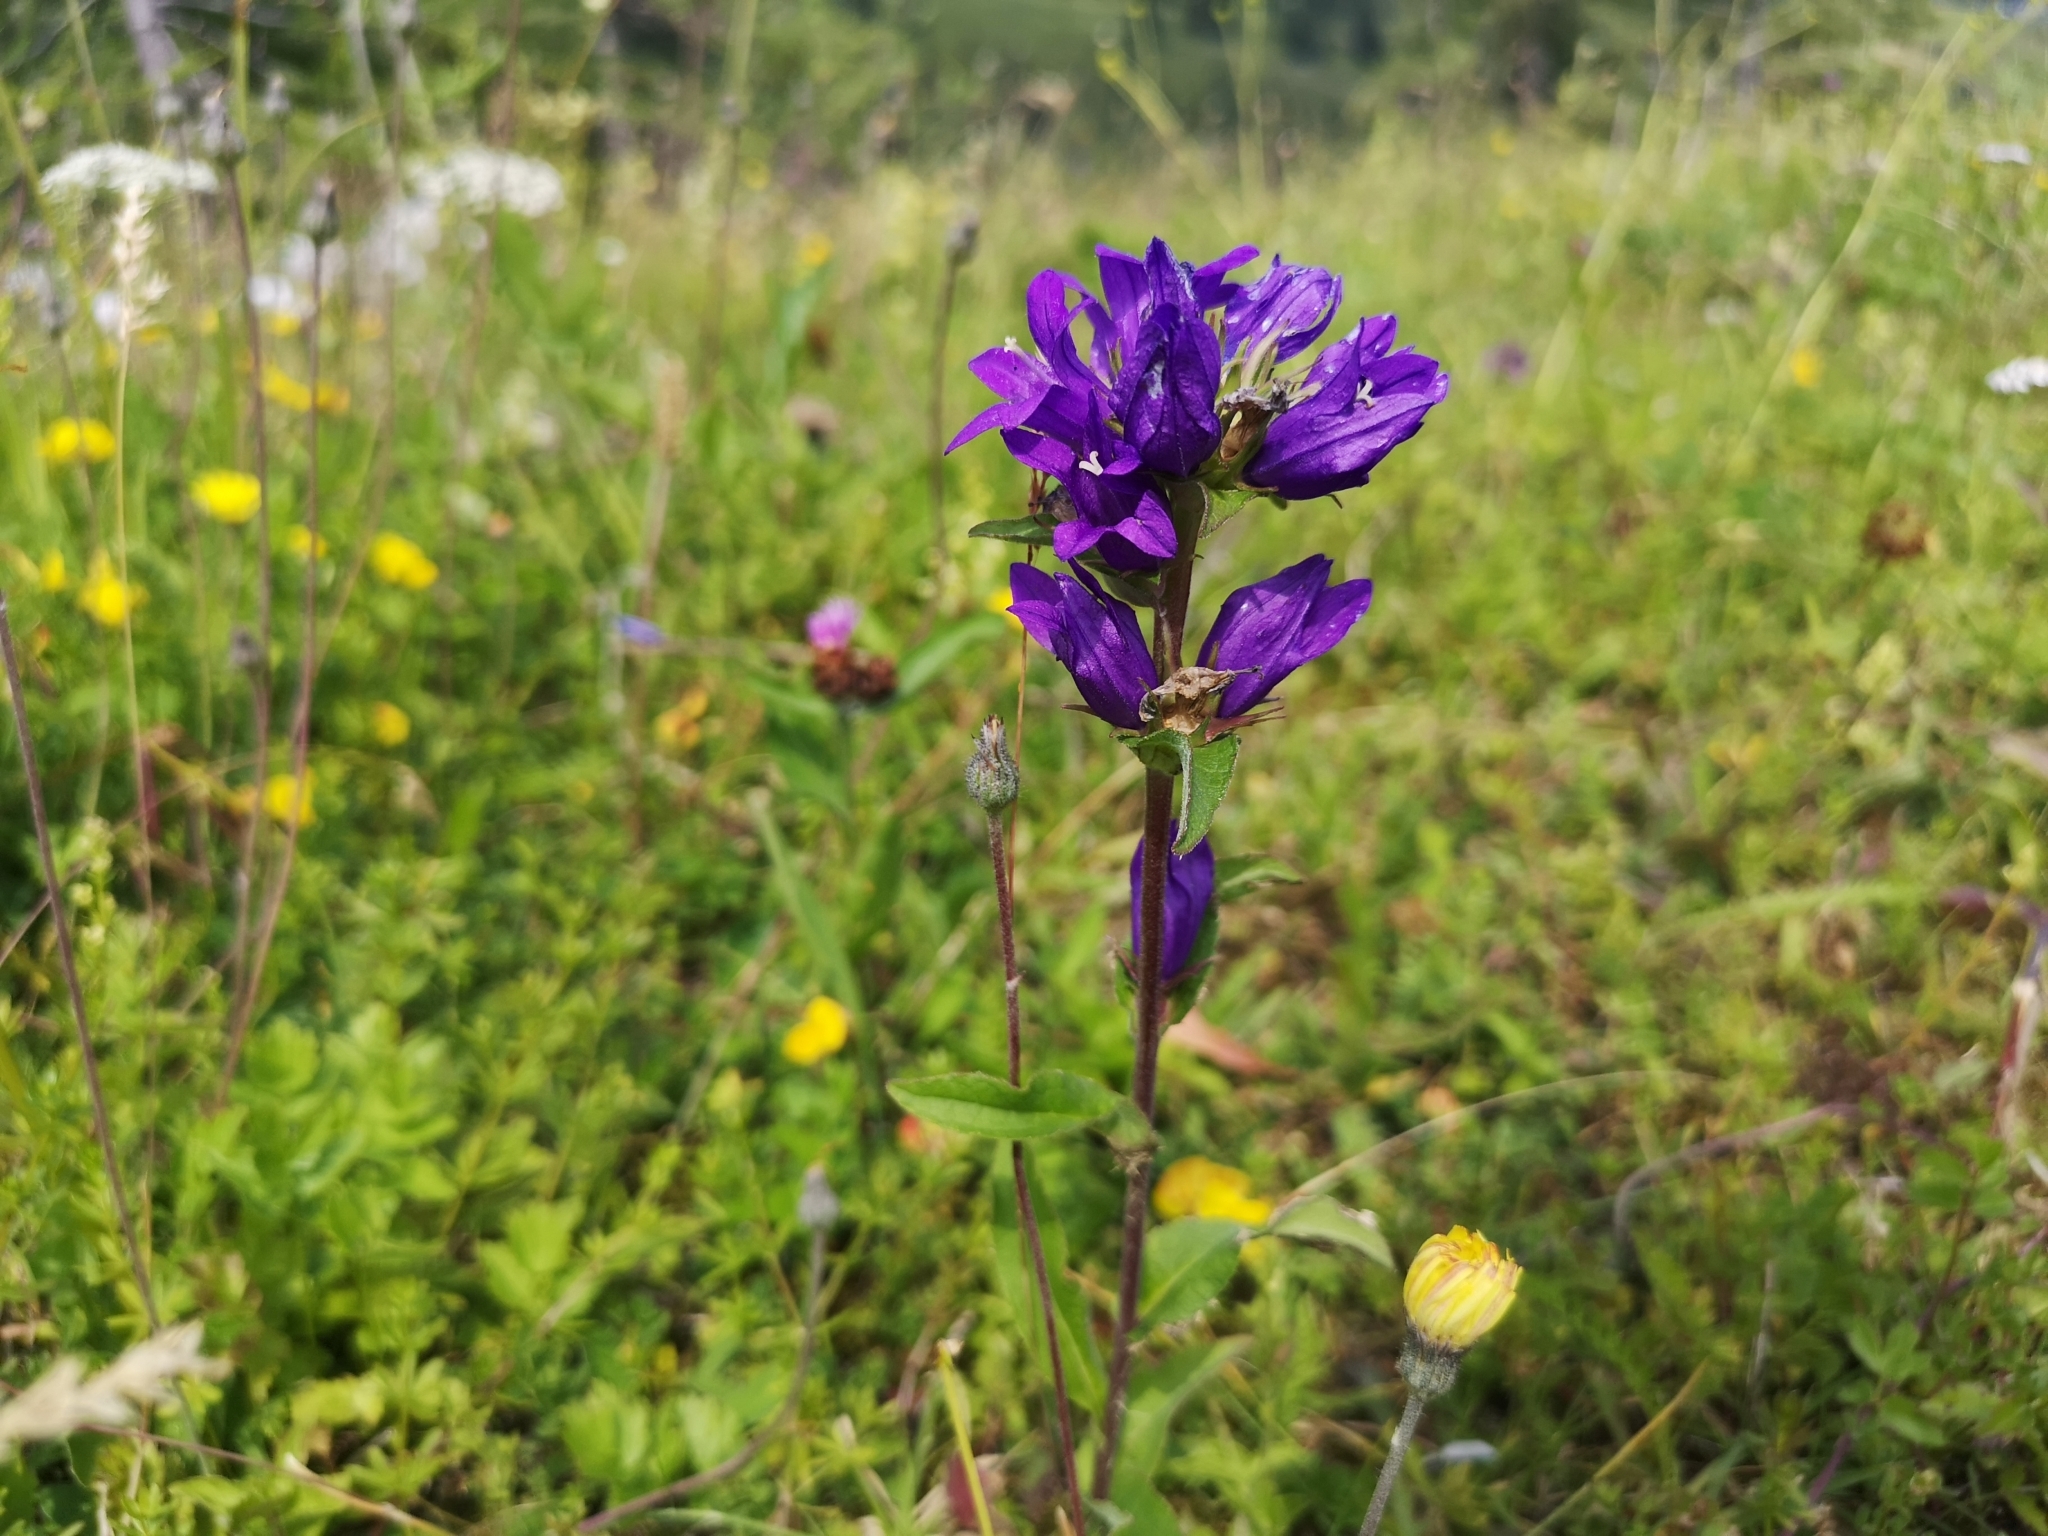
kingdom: Plantae
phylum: Tracheophyta
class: Magnoliopsida
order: Asterales
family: Campanulaceae
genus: Campanula
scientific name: Campanula glomerata
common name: Clustered bellflower
